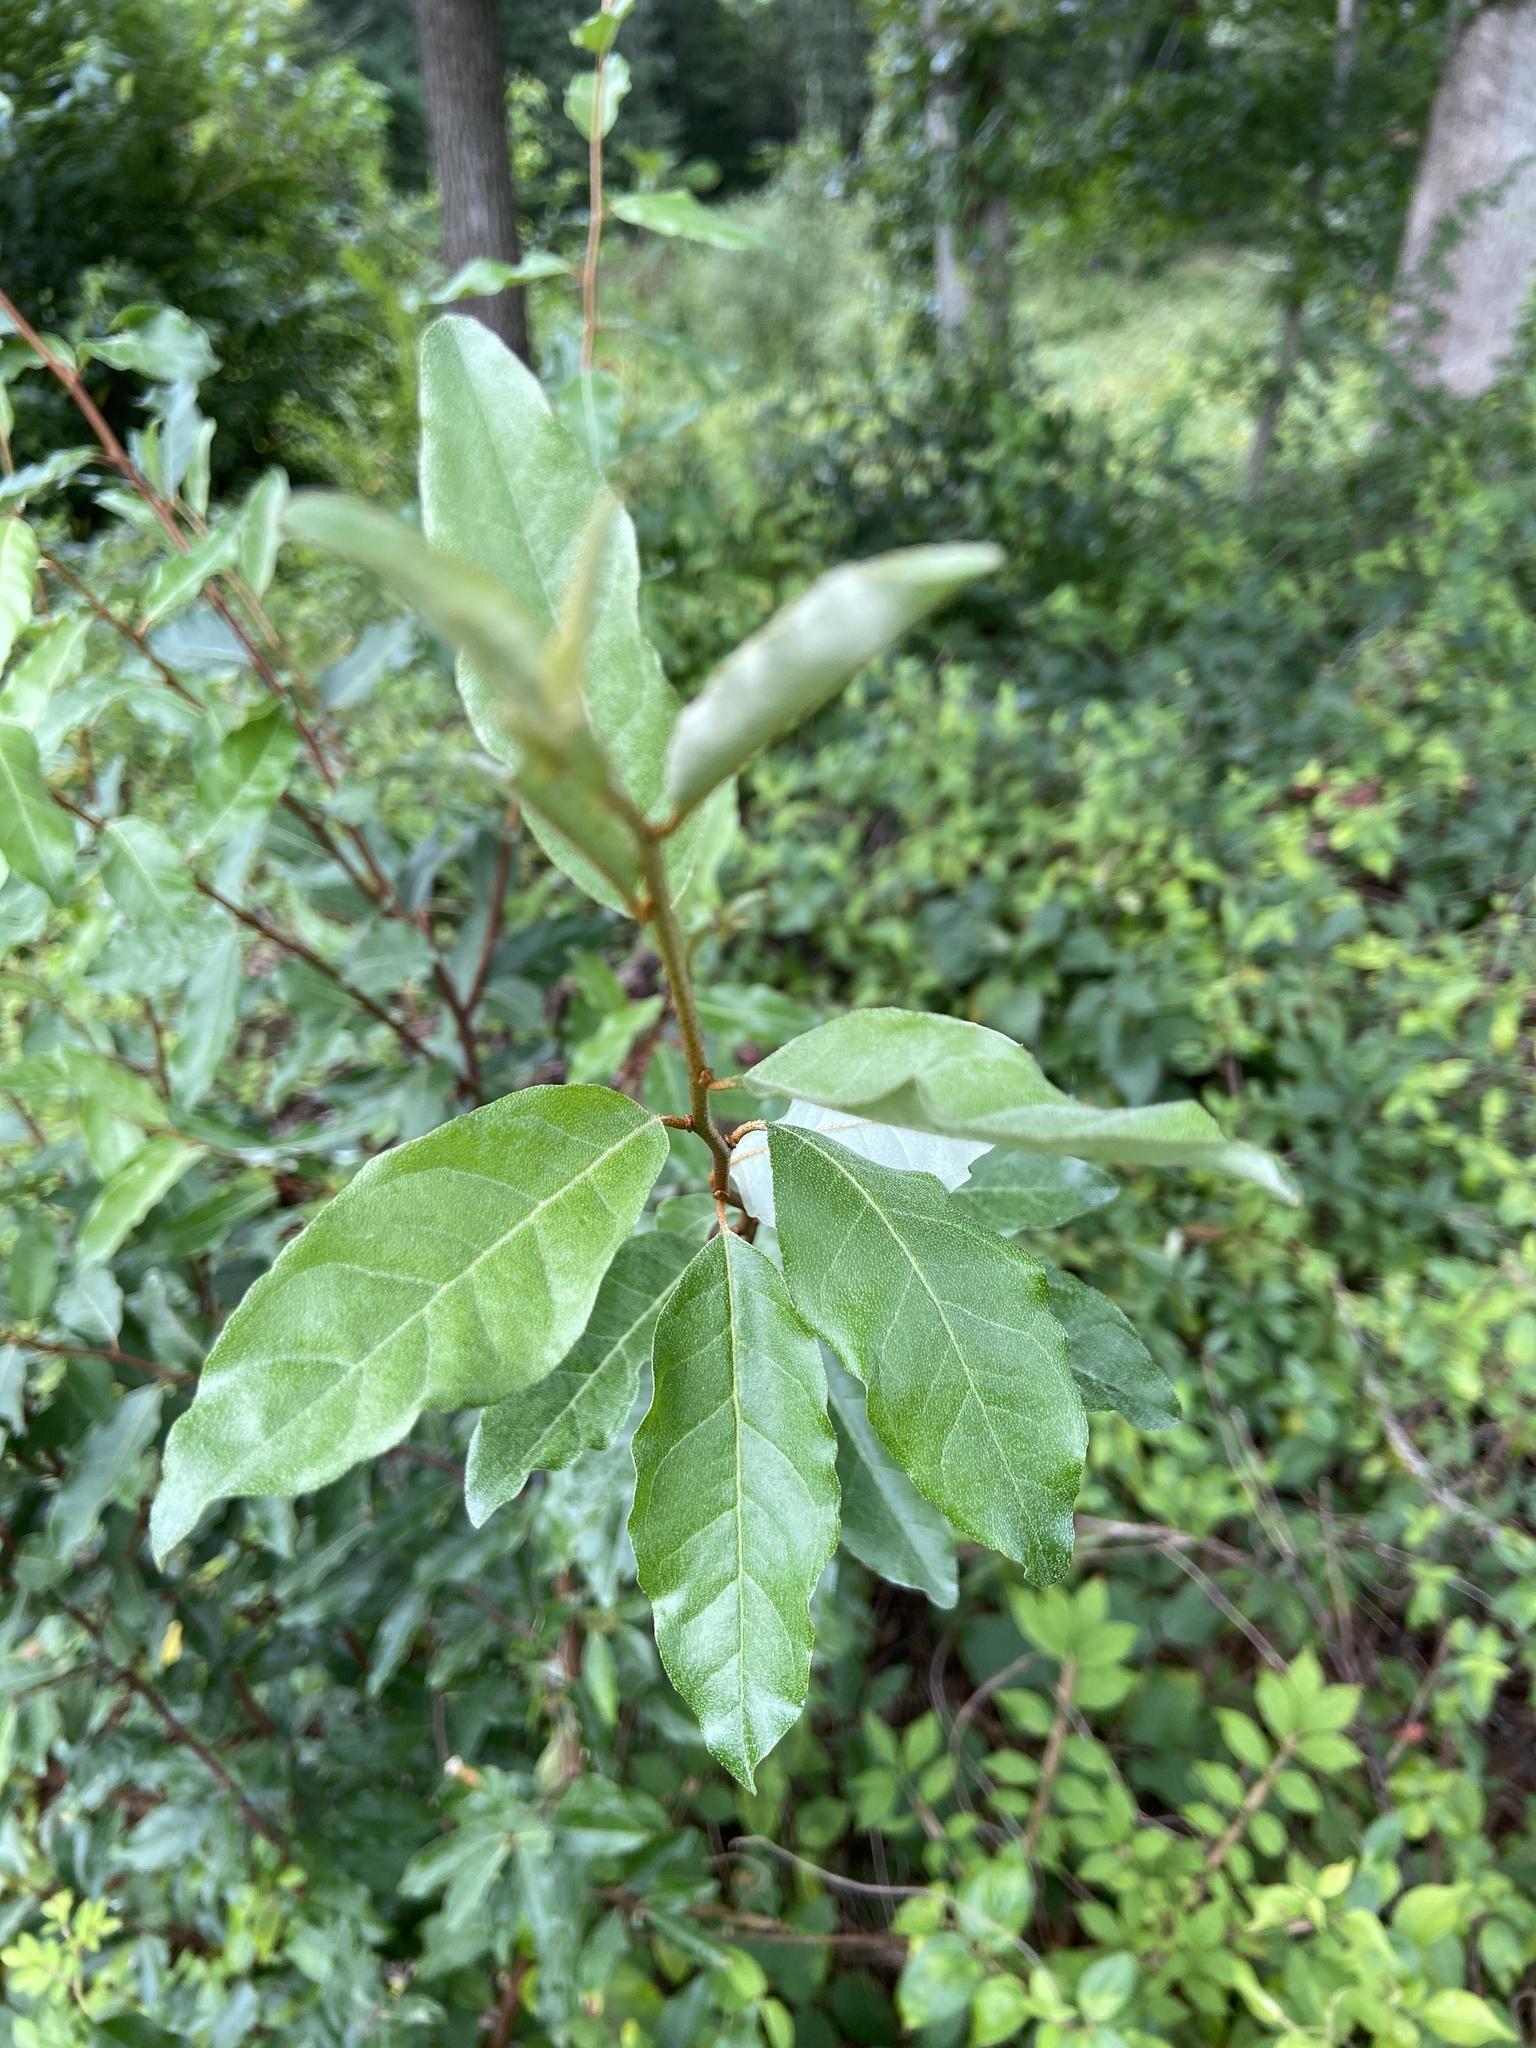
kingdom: Plantae
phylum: Tracheophyta
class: Magnoliopsida
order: Rosales
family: Elaeagnaceae
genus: Elaeagnus
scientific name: Elaeagnus umbellata
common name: Autumn olive
